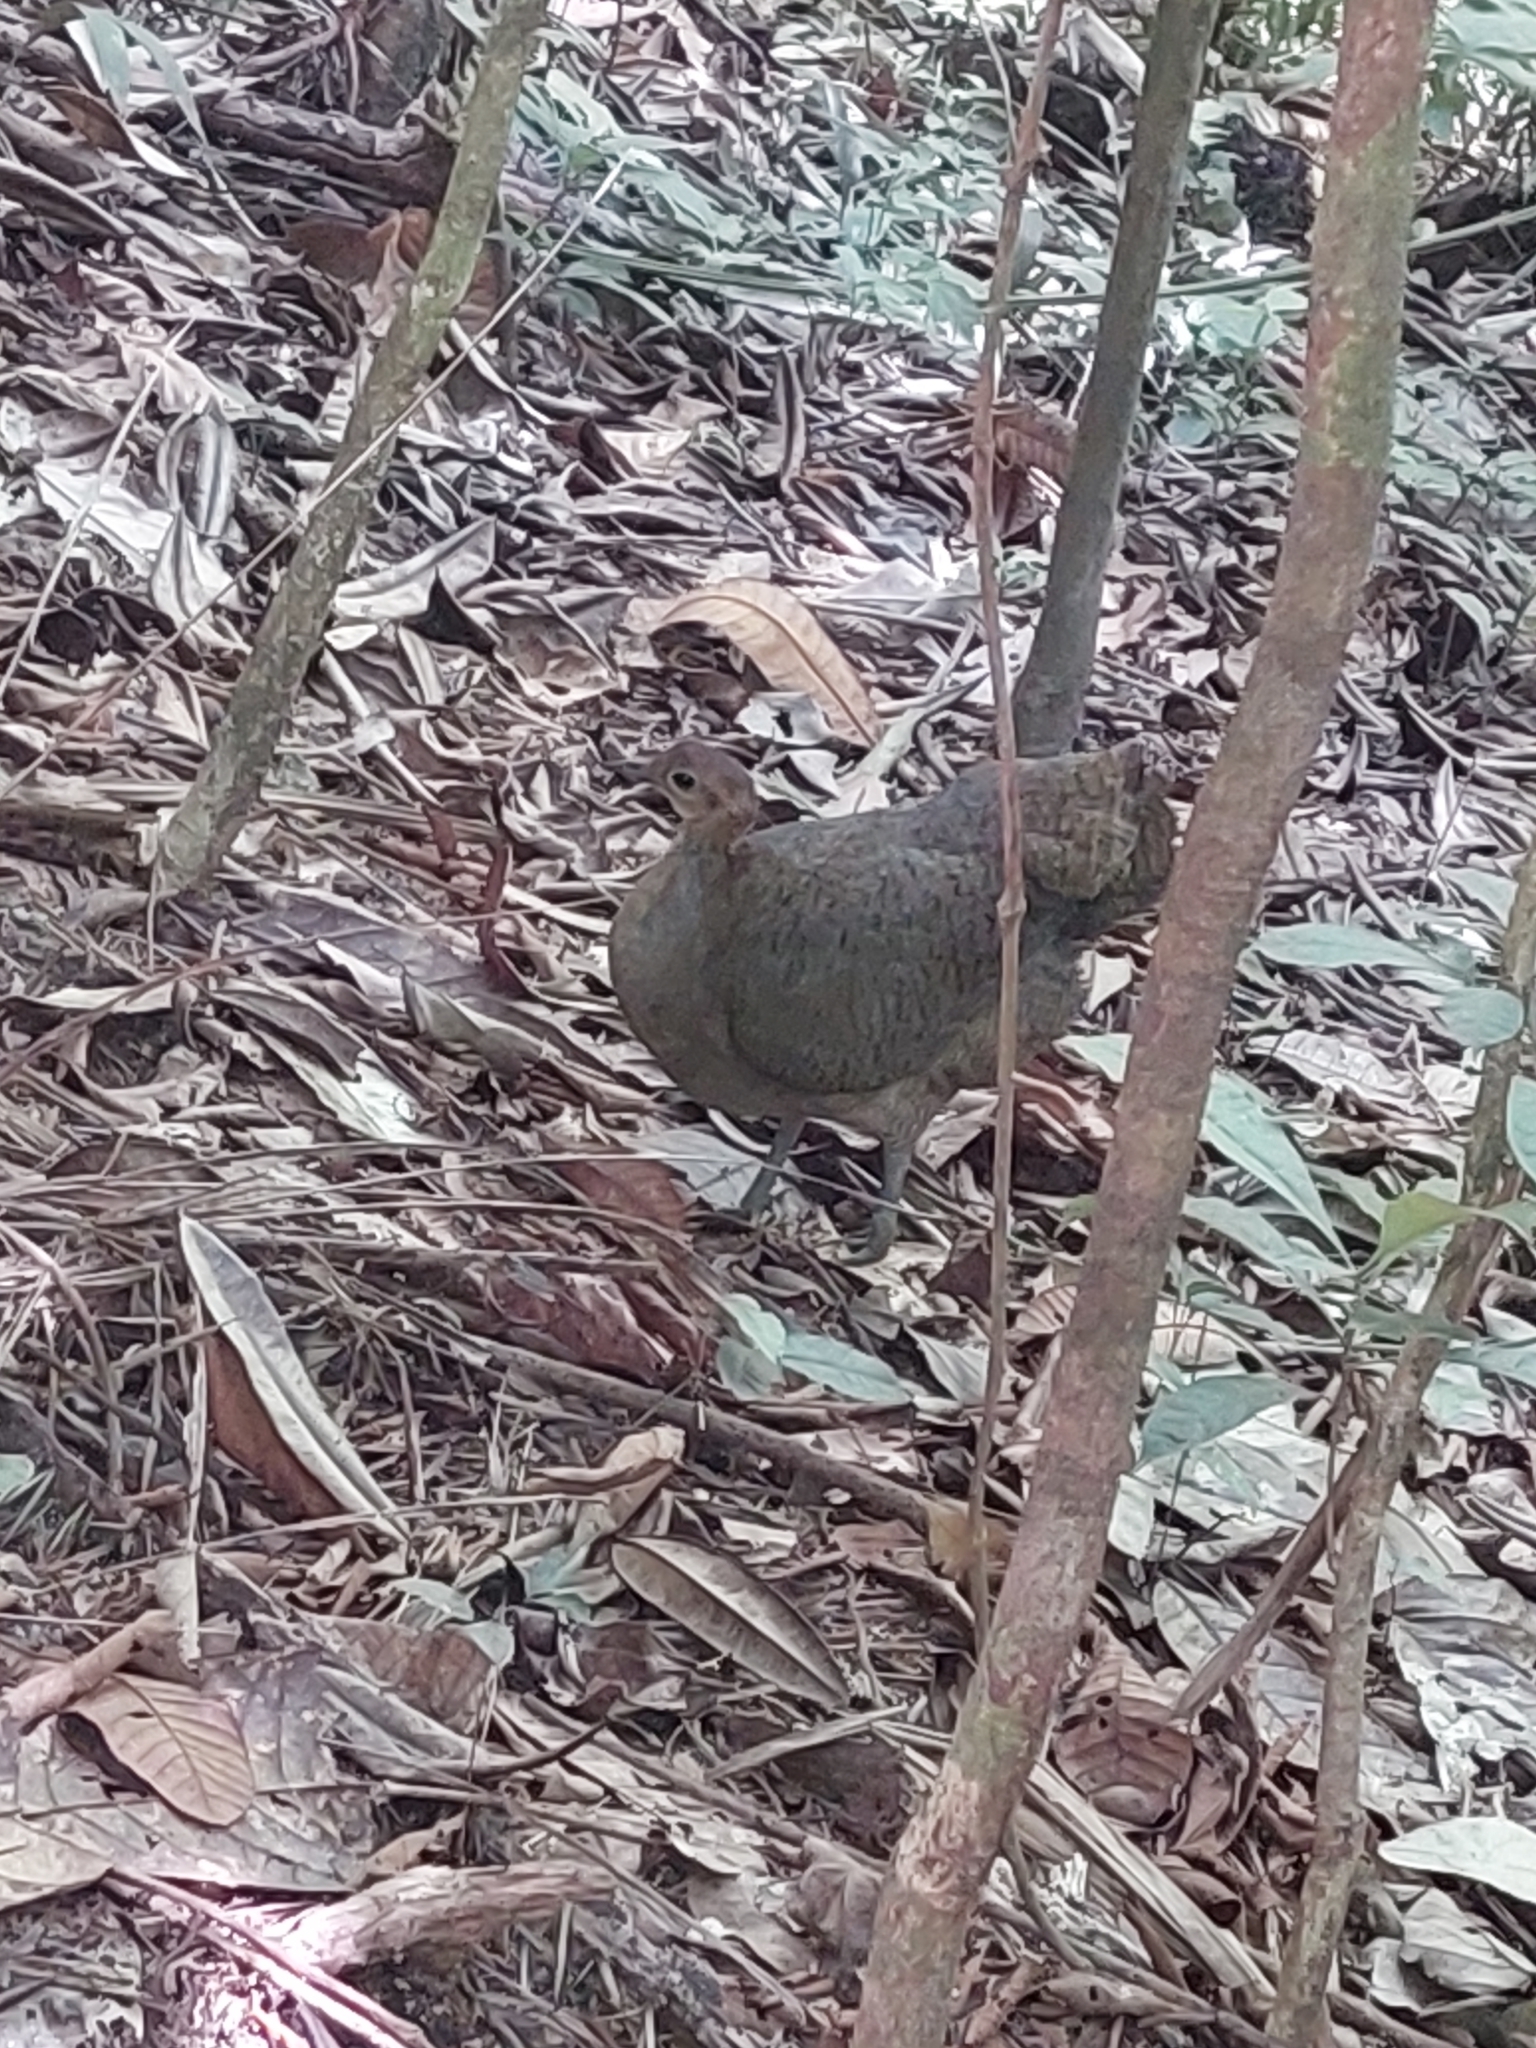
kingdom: Animalia
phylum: Chordata
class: Aves
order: Tinamiformes
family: Tinamidae
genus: Tinamus
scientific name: Tinamus major
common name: Great tinamou
